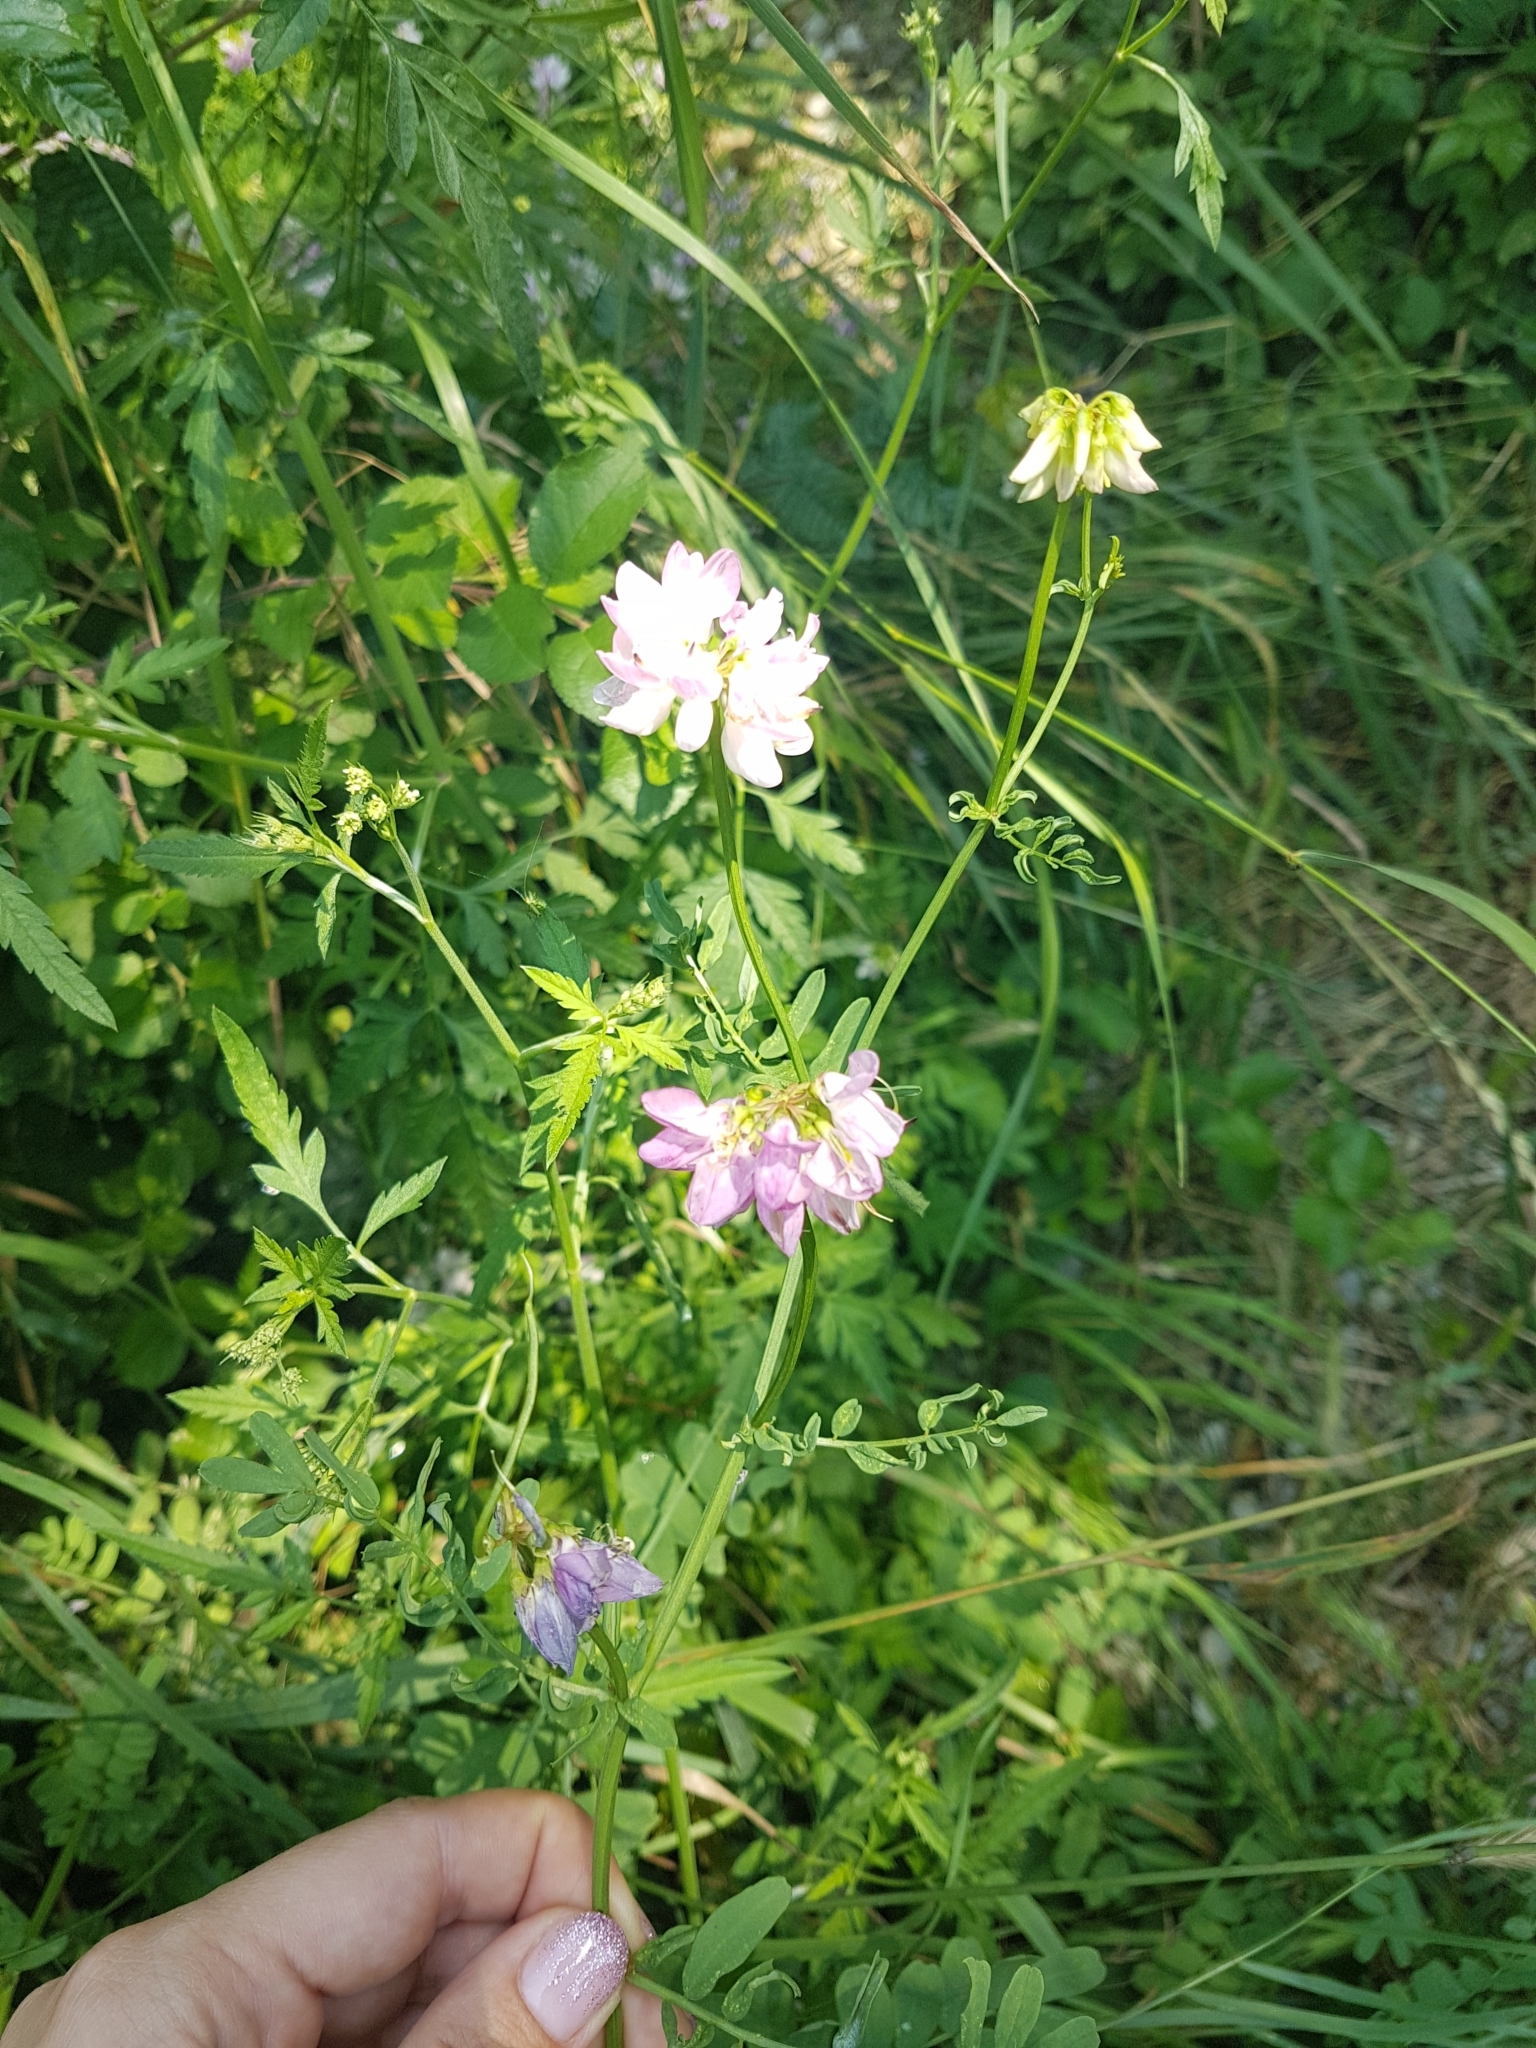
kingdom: Plantae
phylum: Tracheophyta
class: Magnoliopsida
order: Fabales
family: Fabaceae
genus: Coronilla
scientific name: Coronilla varia
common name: Crownvetch
